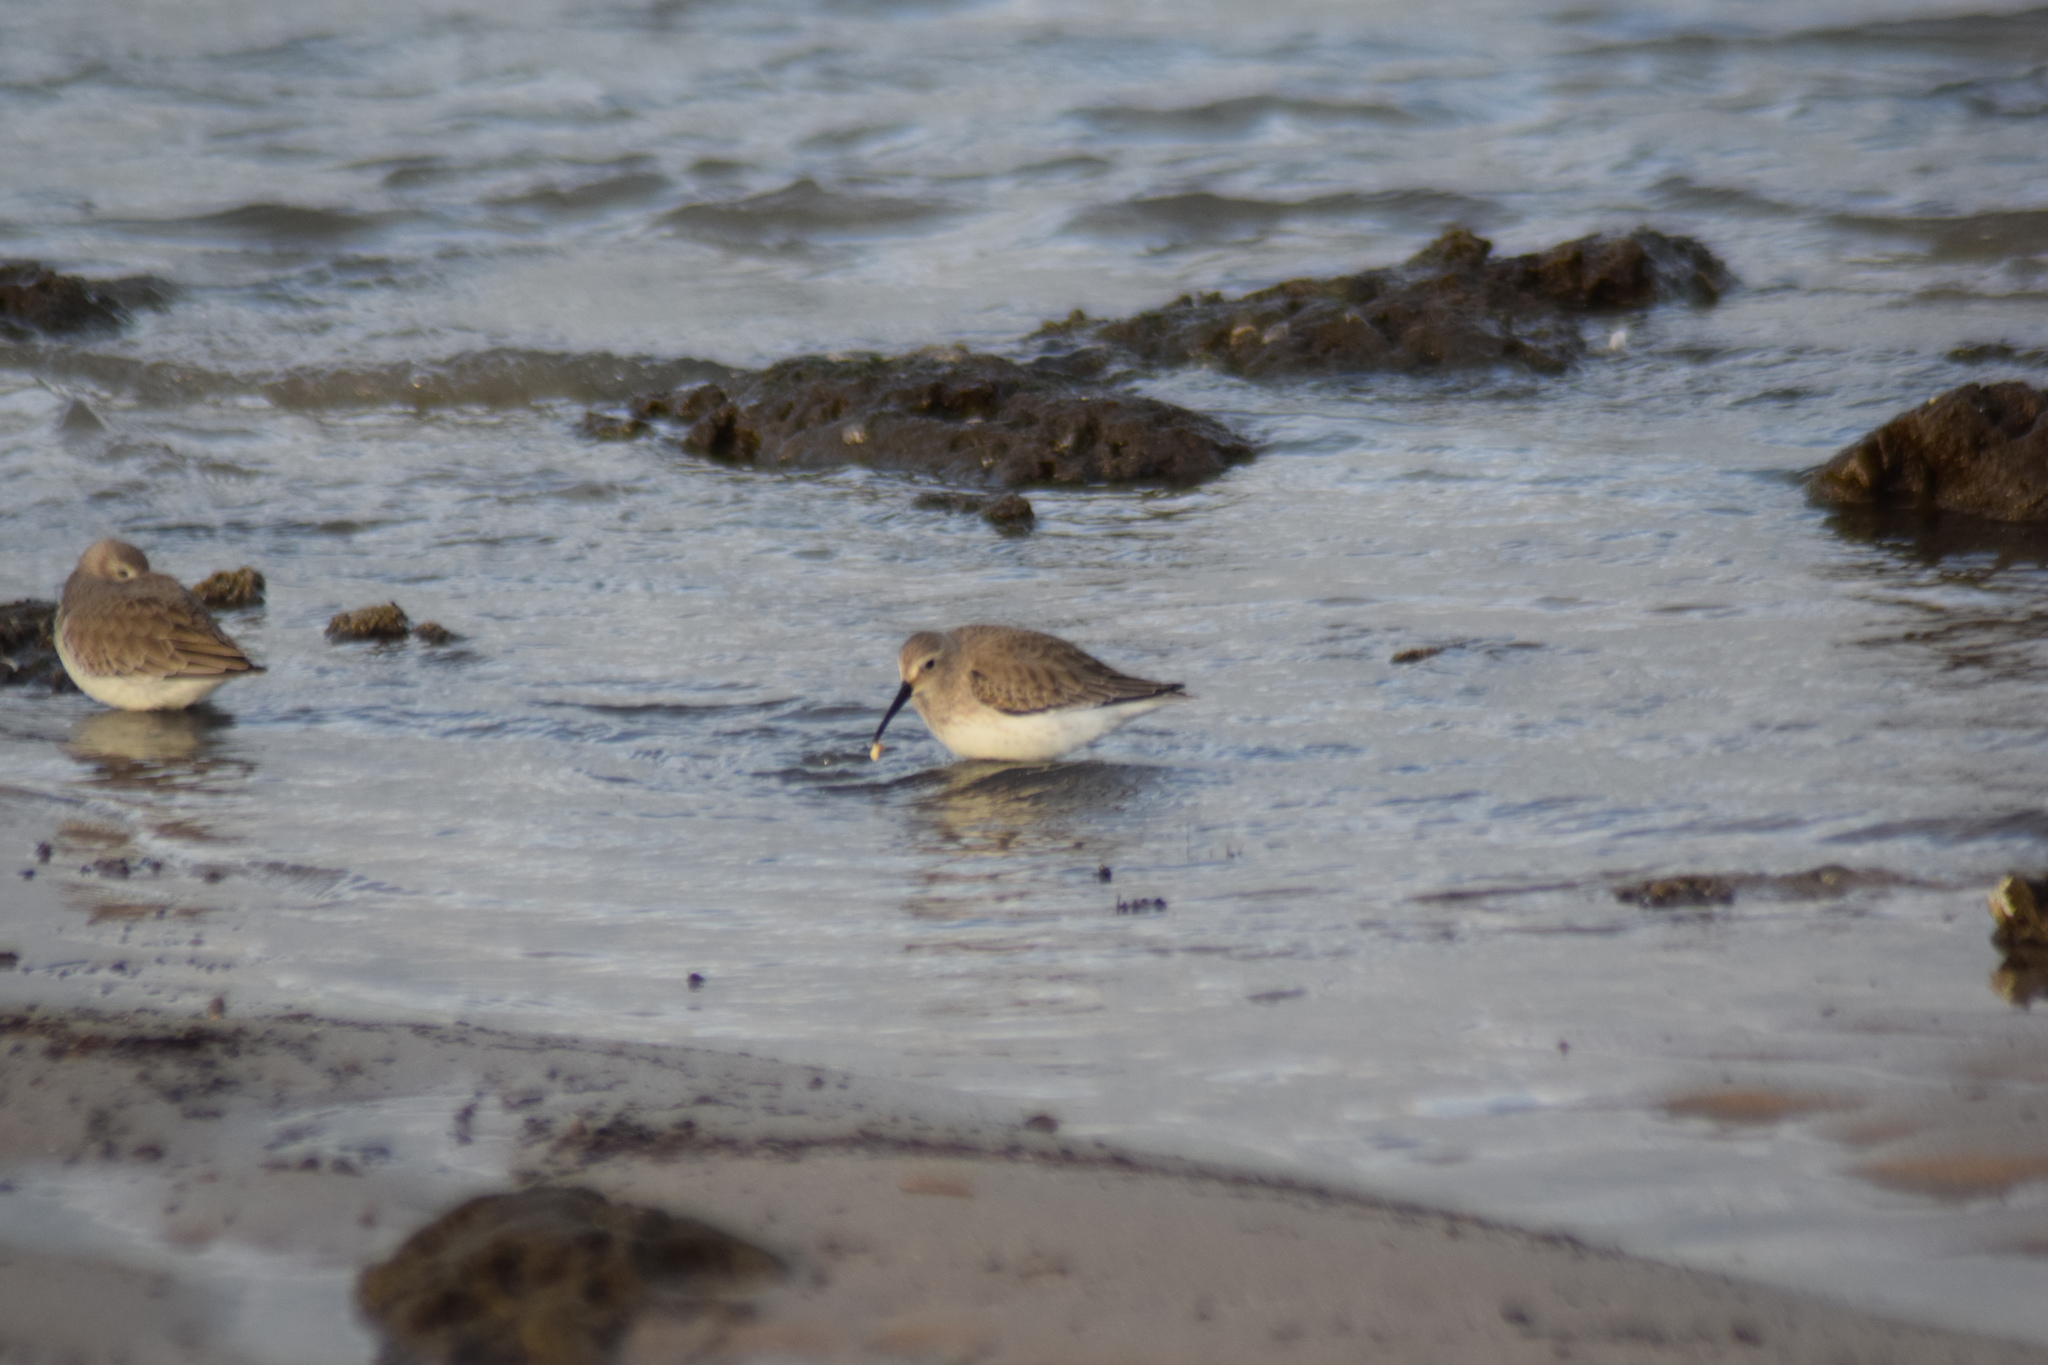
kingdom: Animalia
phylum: Chordata
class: Aves
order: Charadriiformes
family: Scolopacidae
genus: Calidris
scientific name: Calidris alpina
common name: Dunlin
